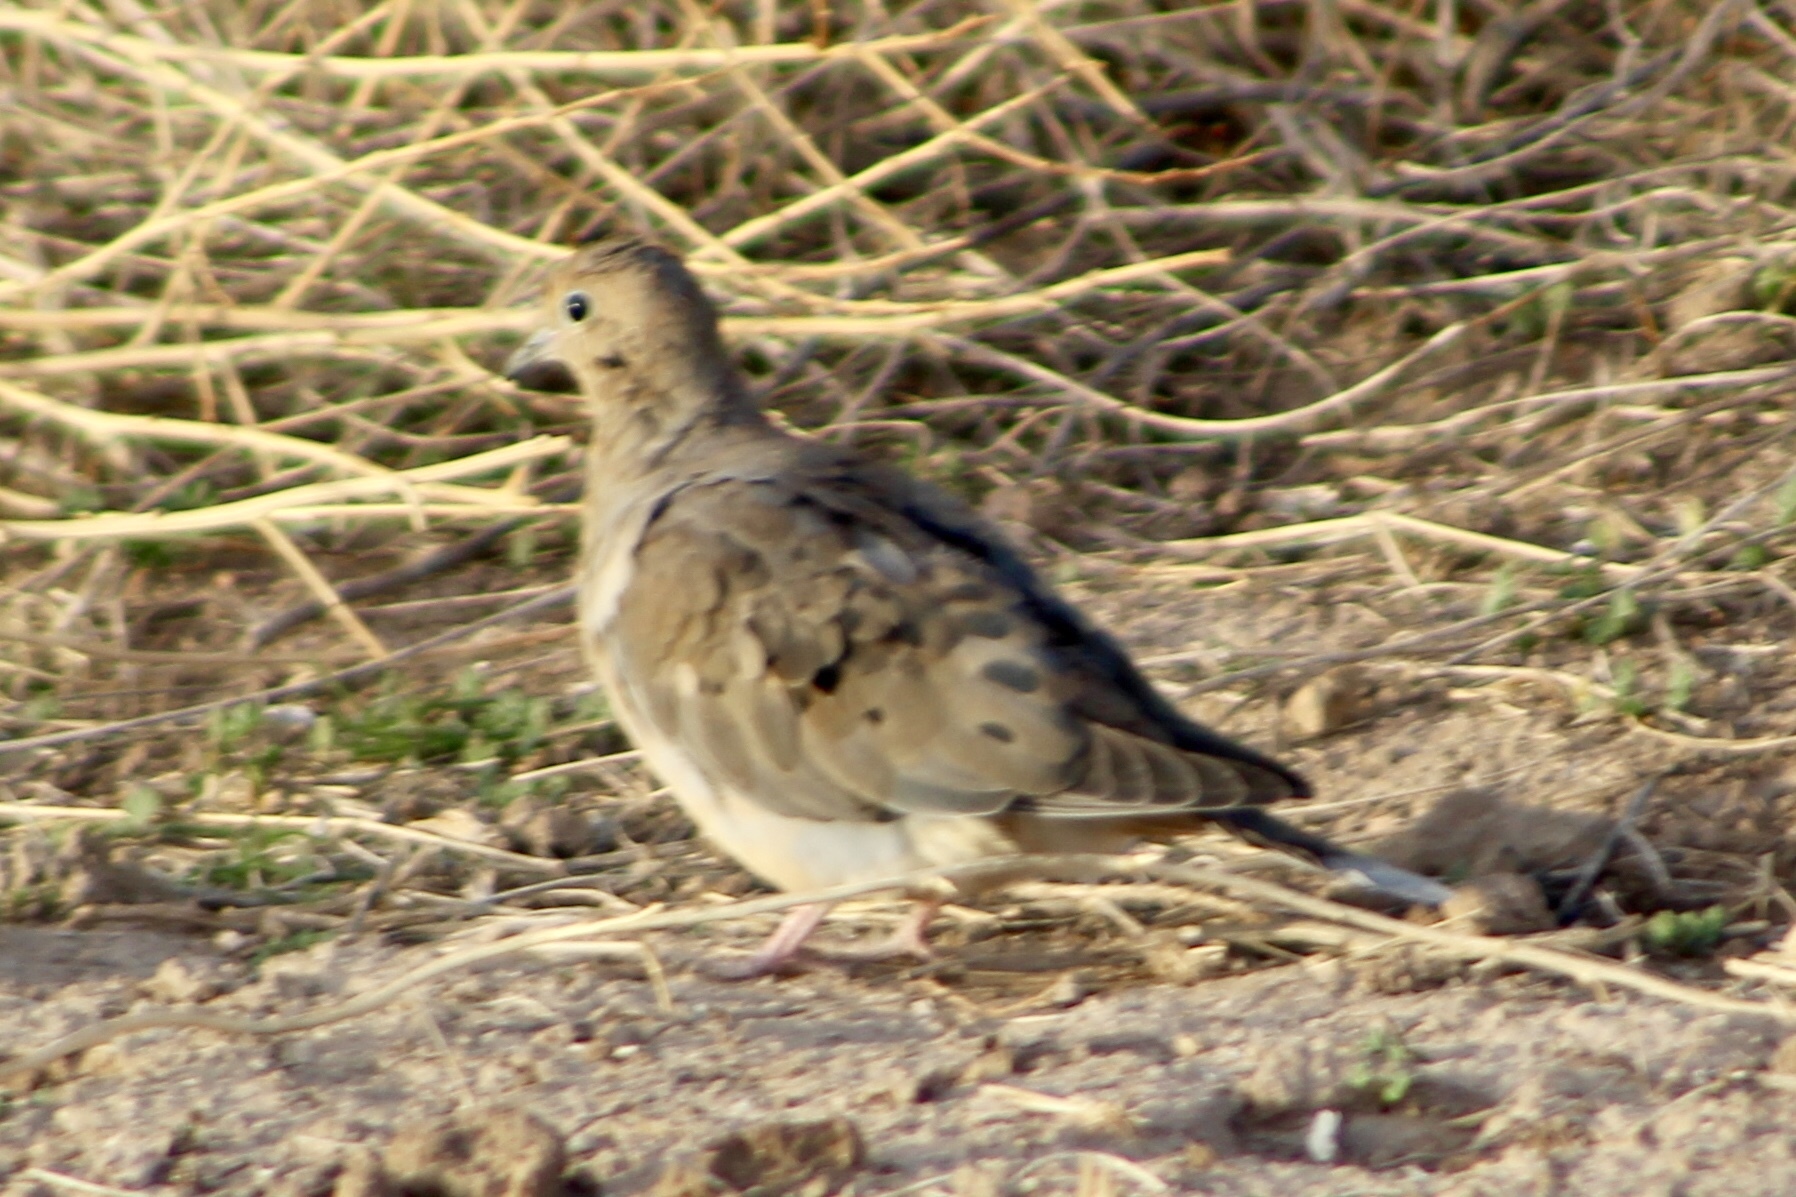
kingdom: Animalia
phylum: Chordata
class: Aves
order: Columbiformes
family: Columbidae
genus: Zenaida
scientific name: Zenaida macroura
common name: Mourning dove
